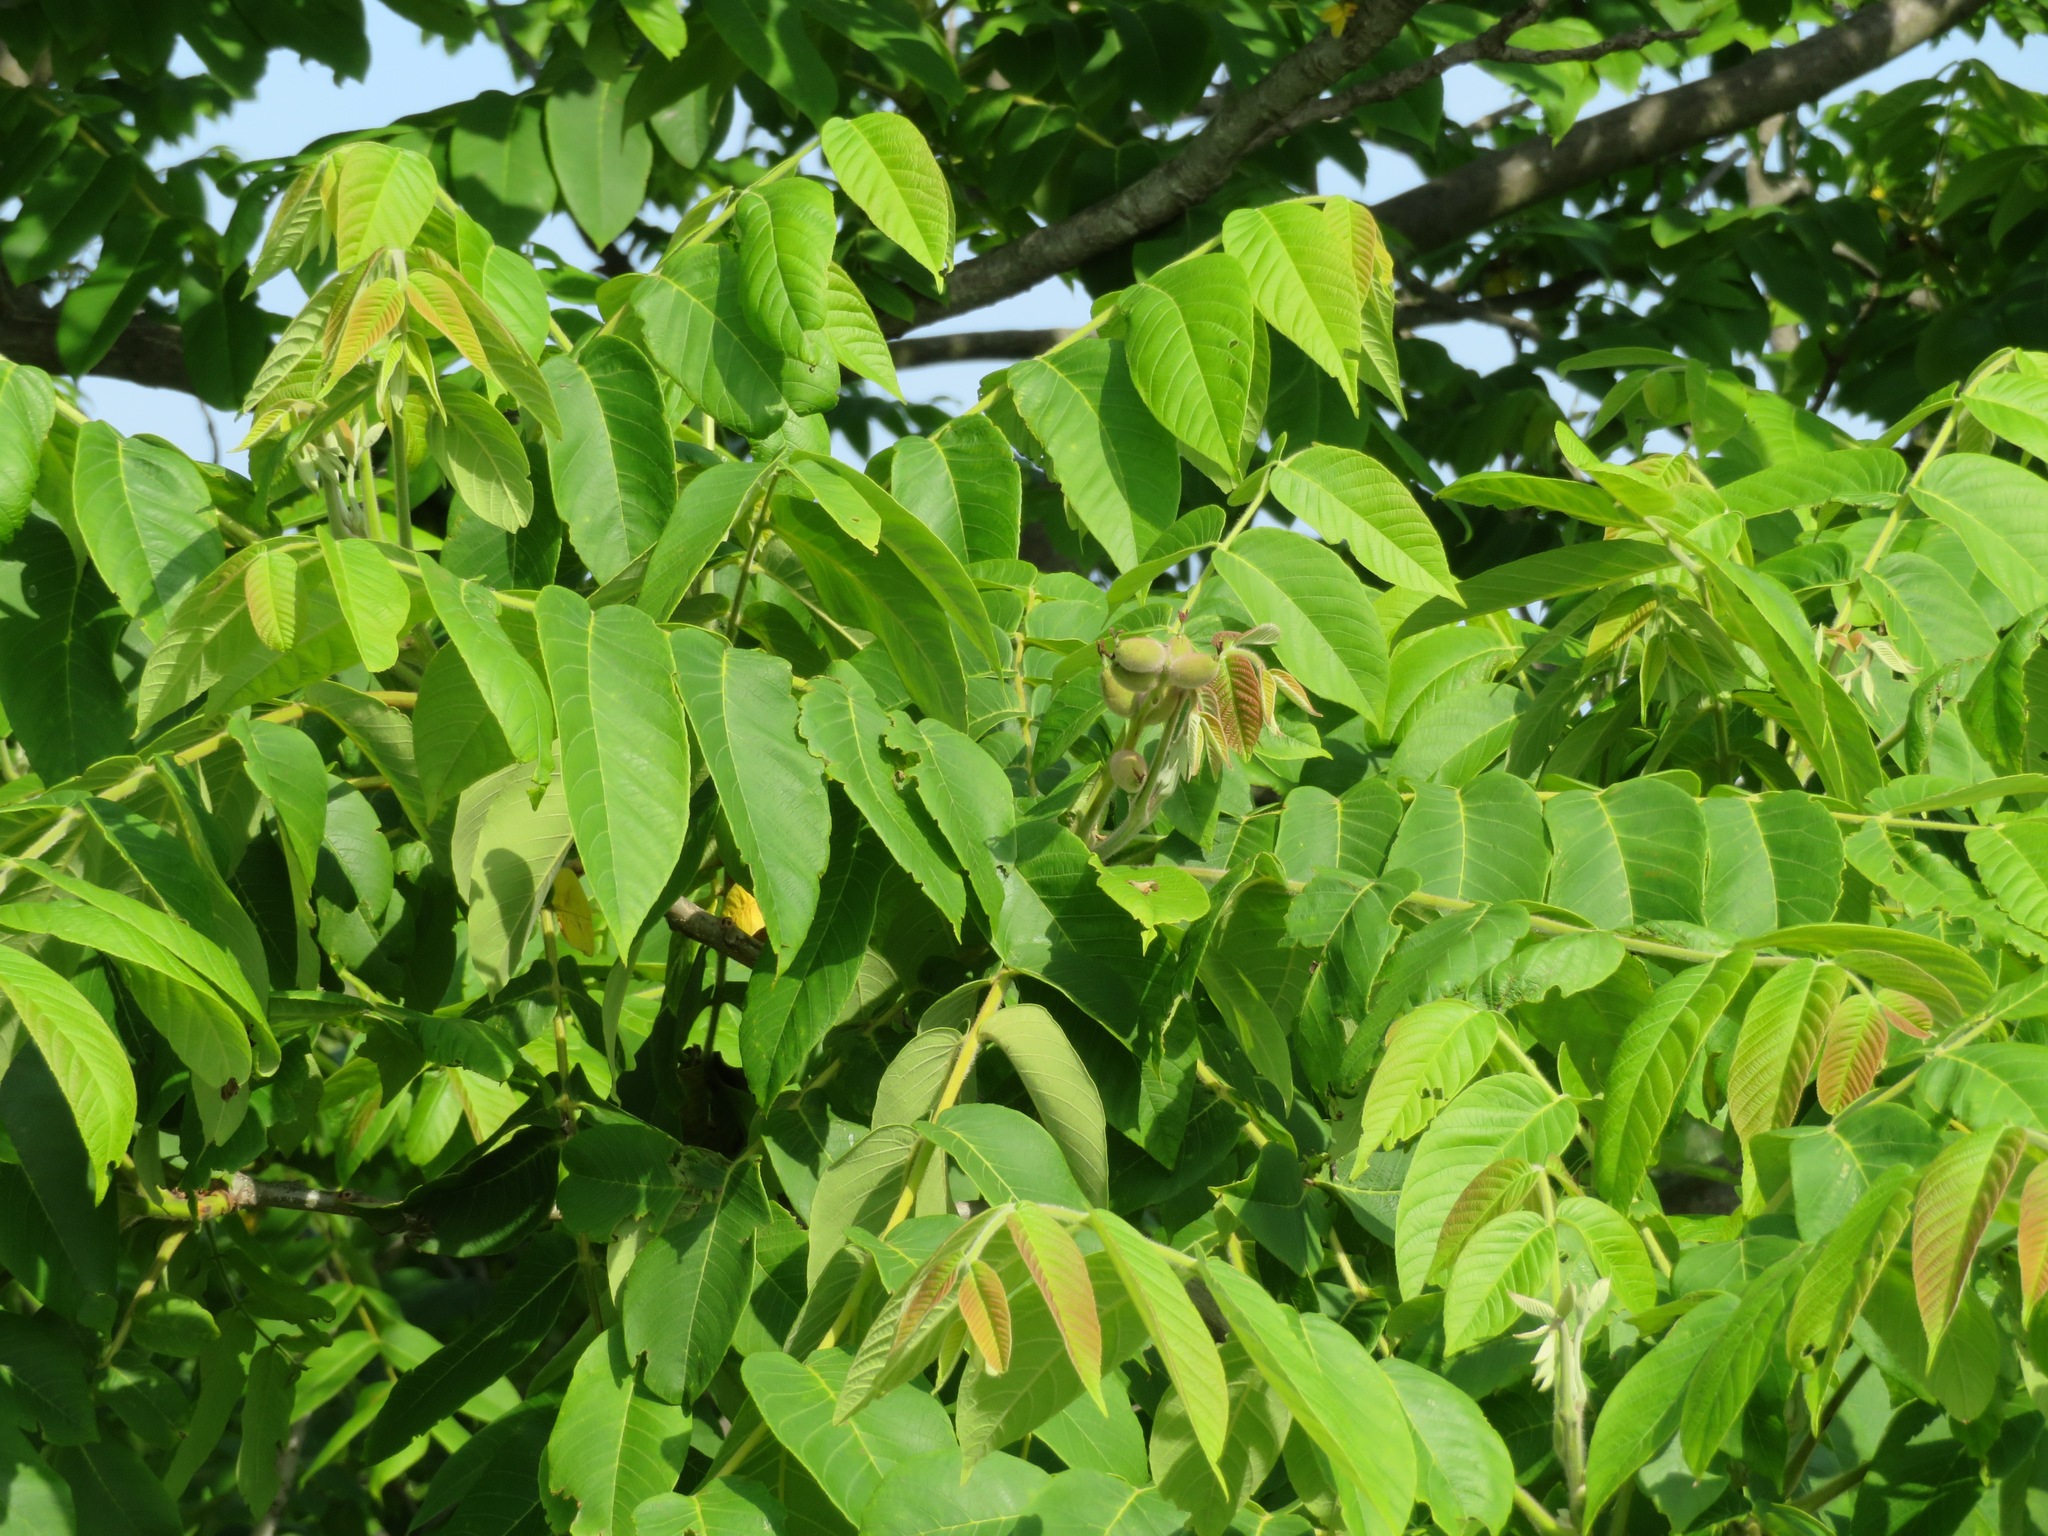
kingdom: Plantae
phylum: Tracheophyta
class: Magnoliopsida
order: Fagales
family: Juglandaceae
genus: Juglans
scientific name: Juglans ailantifolia
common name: Japanese walnut
